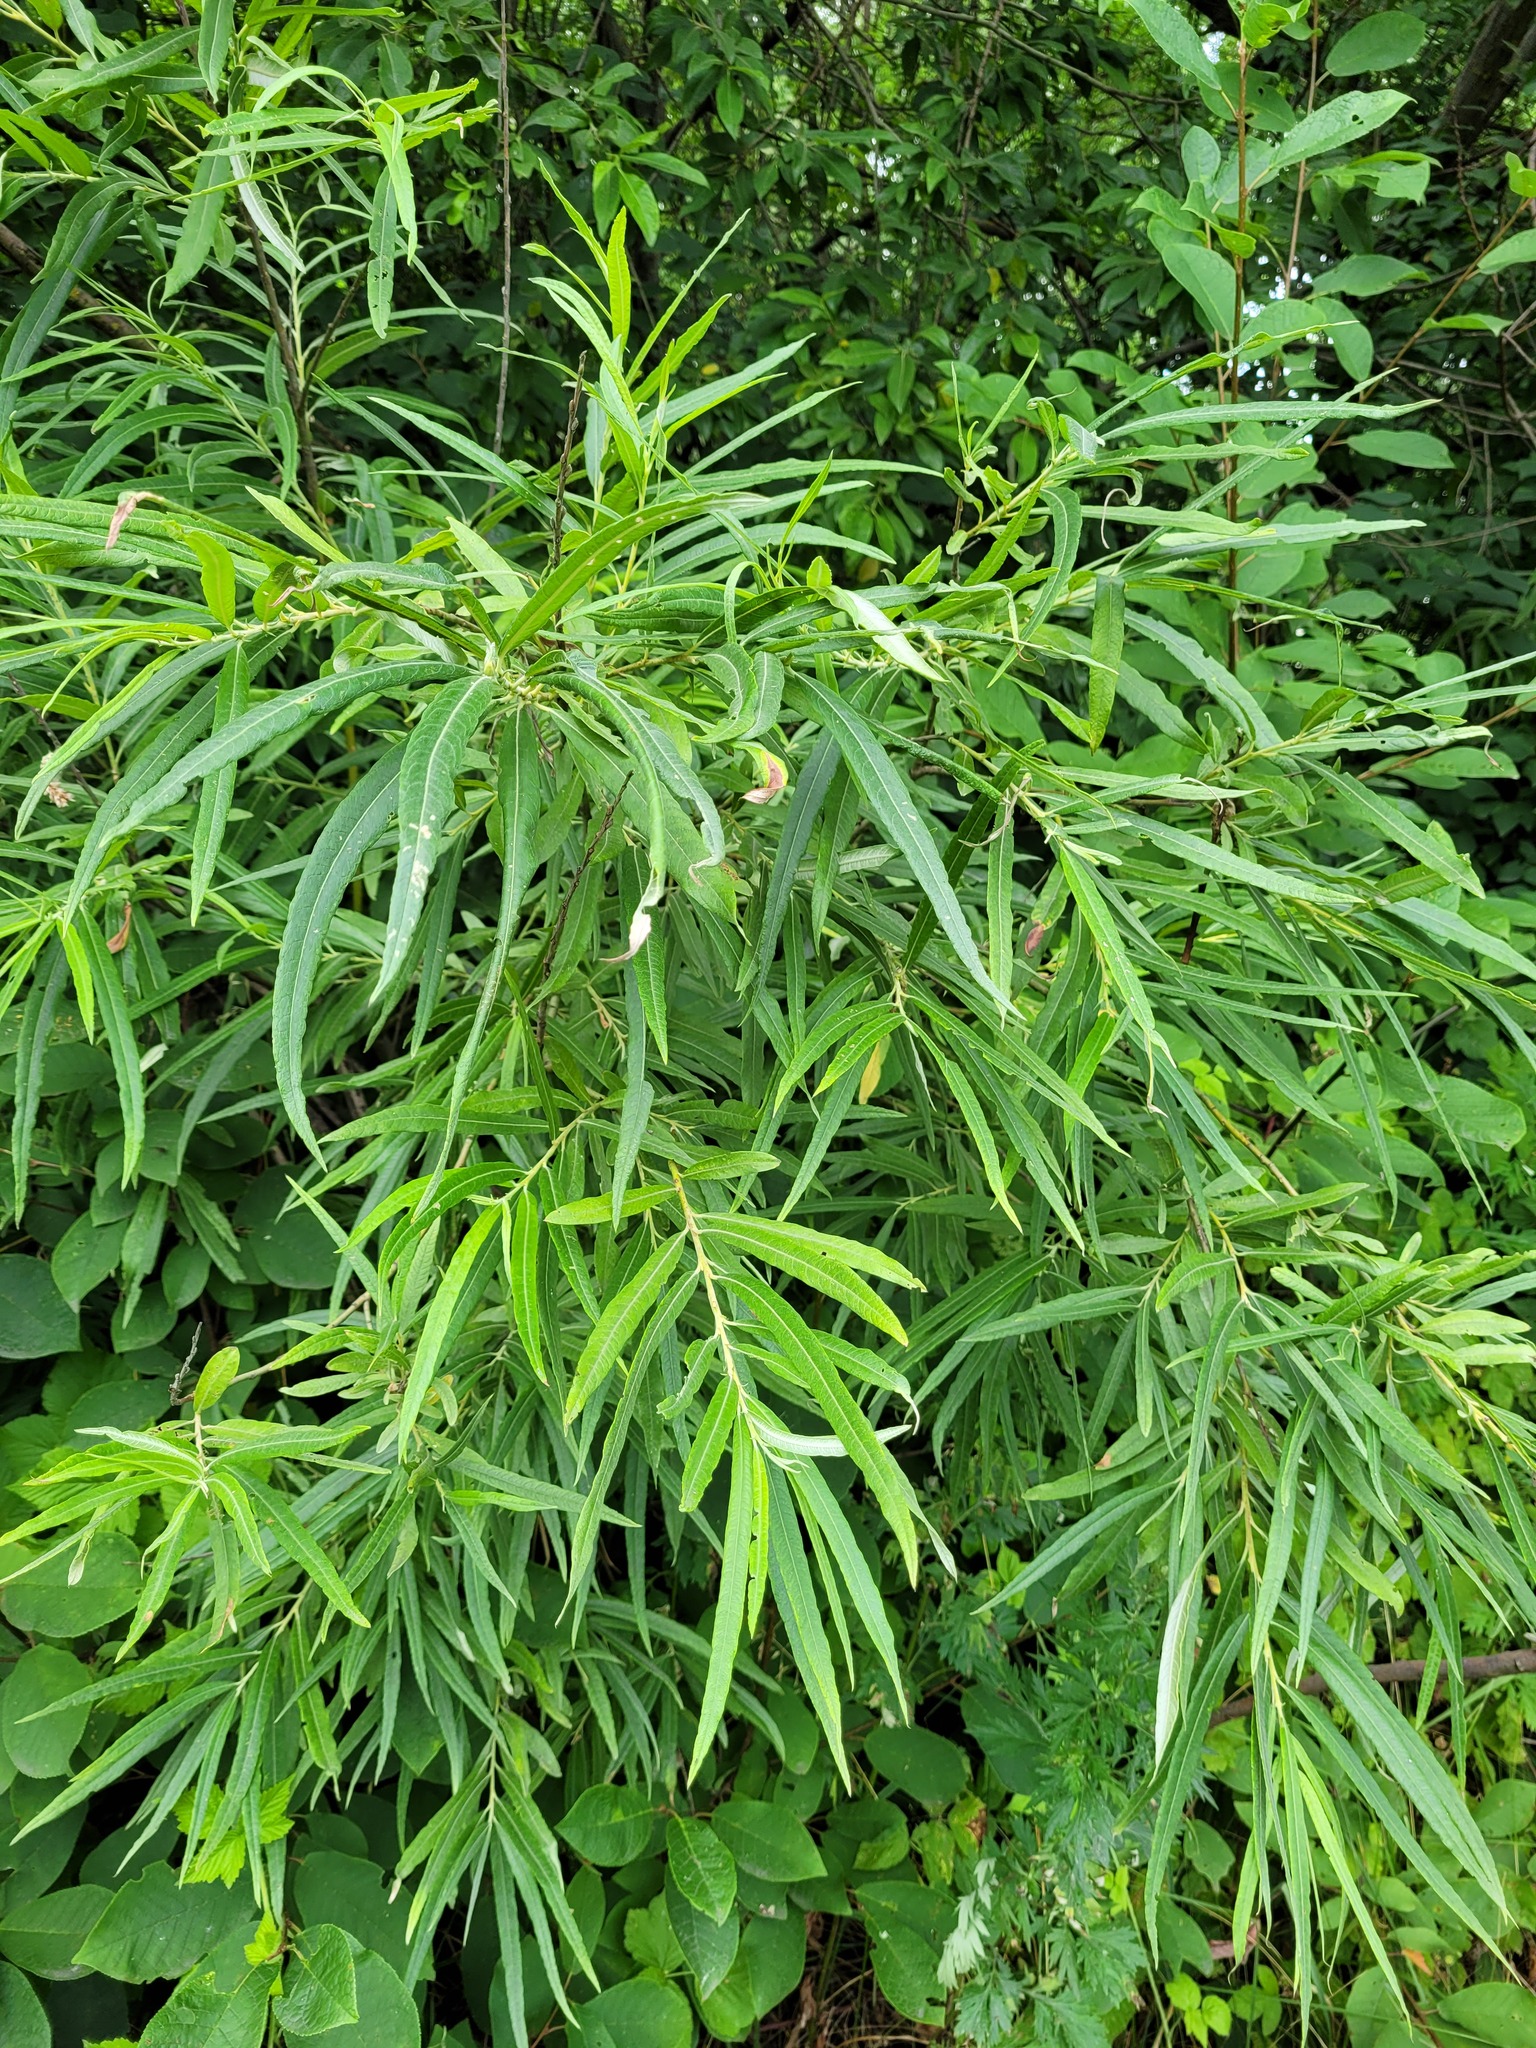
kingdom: Plantae
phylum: Tracheophyta
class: Magnoliopsida
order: Malpighiales
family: Salicaceae
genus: Salix
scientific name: Salix viminalis
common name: Osier
